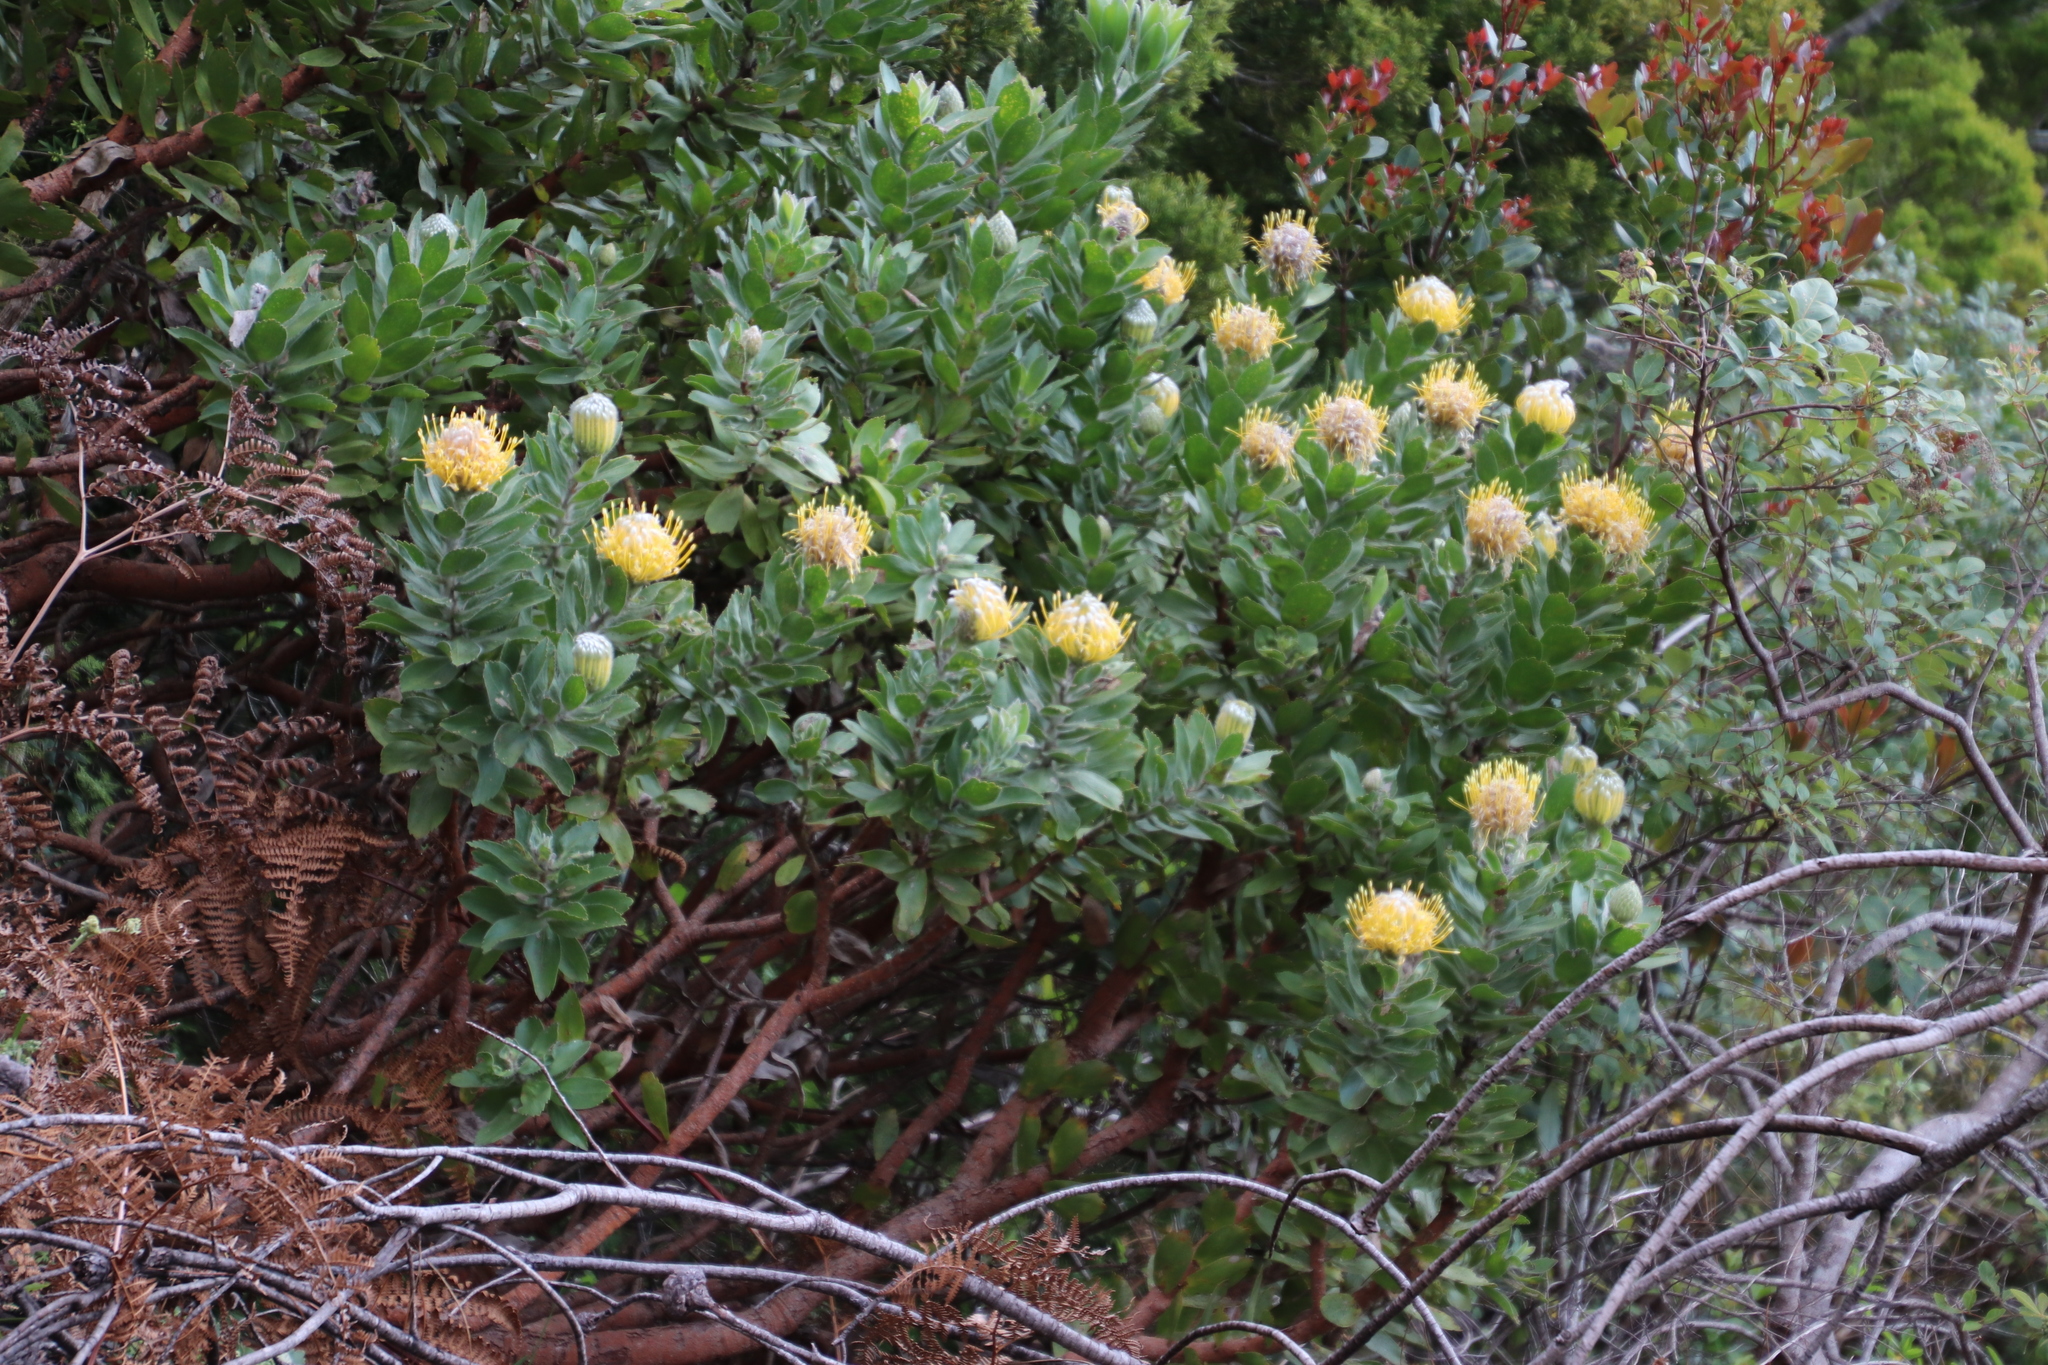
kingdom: Plantae
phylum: Tracheophyta
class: Magnoliopsida
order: Proteales
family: Proteaceae
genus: Leucospermum
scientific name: Leucospermum conocarpodendron
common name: Tree pincushion
